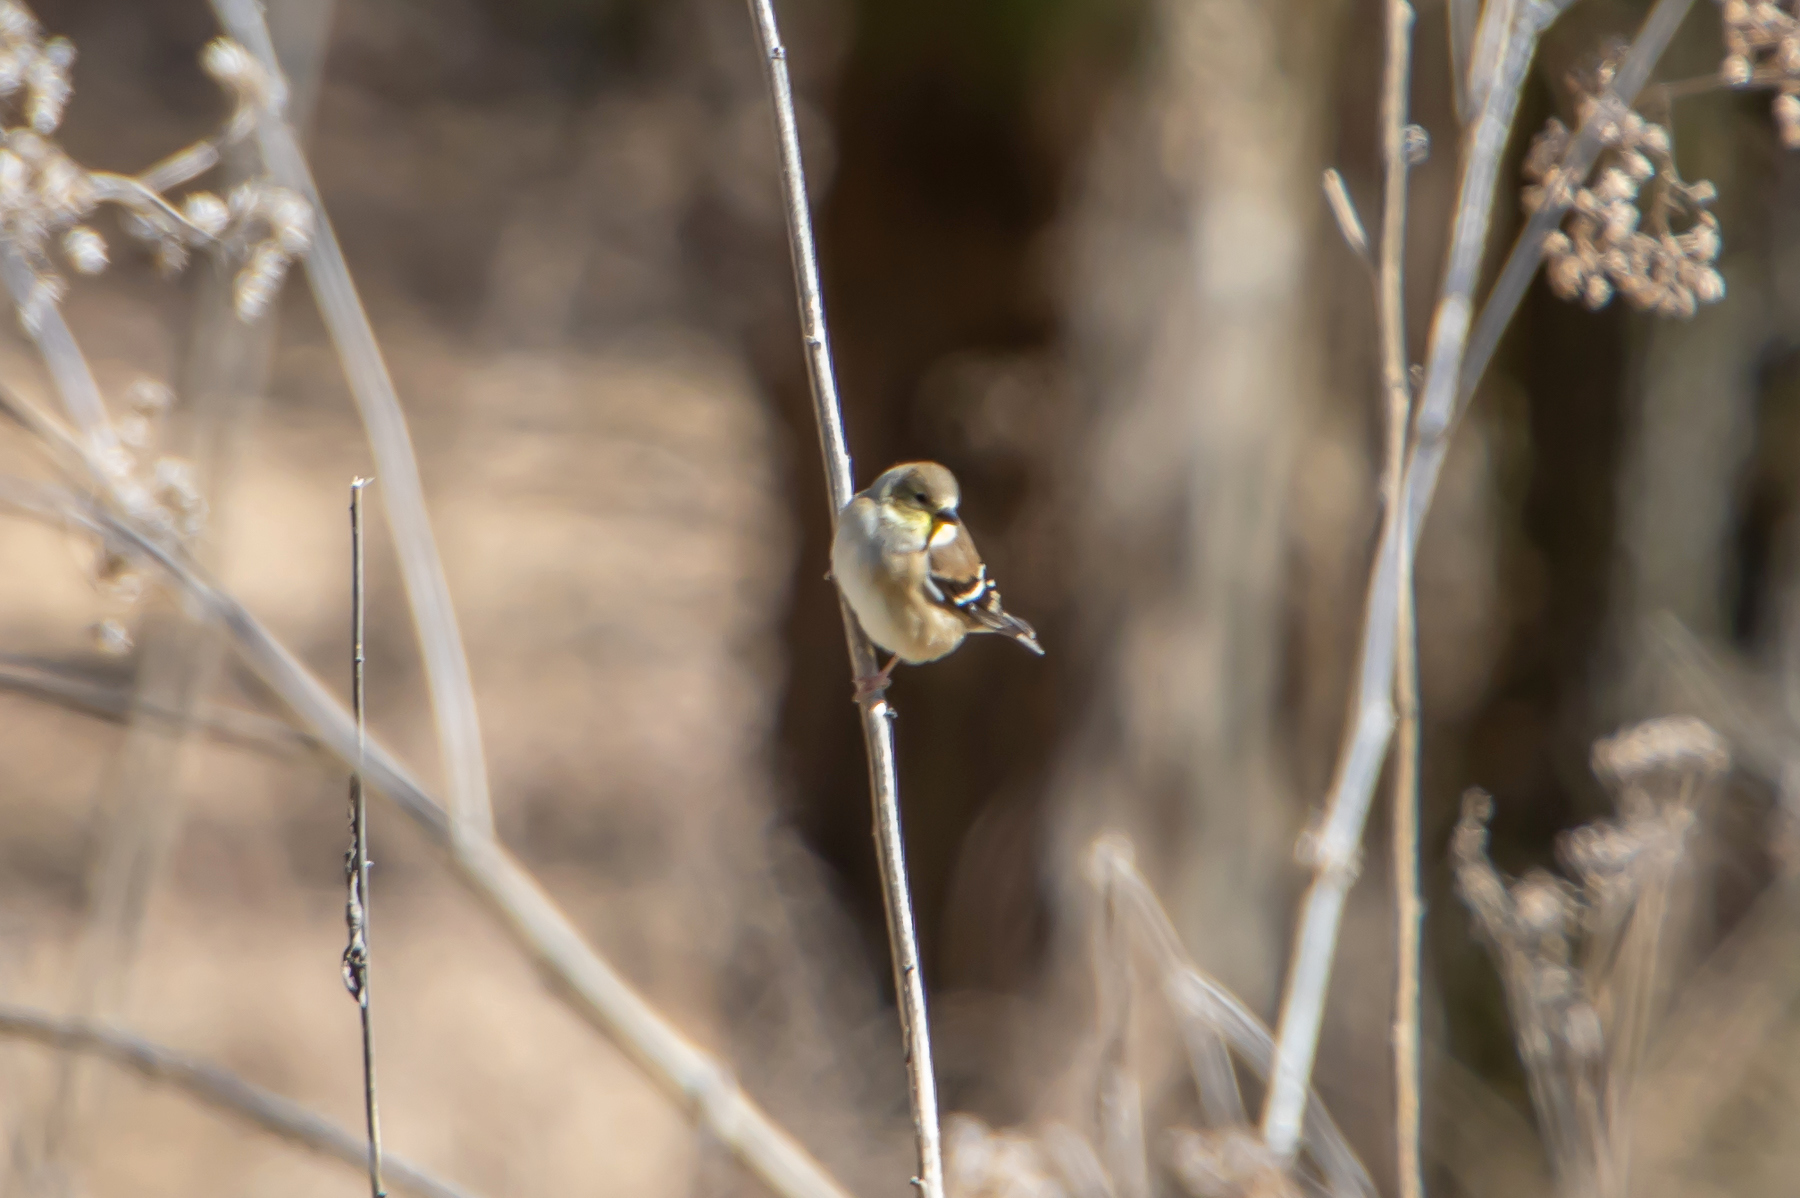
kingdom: Animalia
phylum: Chordata
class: Aves
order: Passeriformes
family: Fringillidae
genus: Spinus
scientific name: Spinus tristis
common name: American goldfinch
